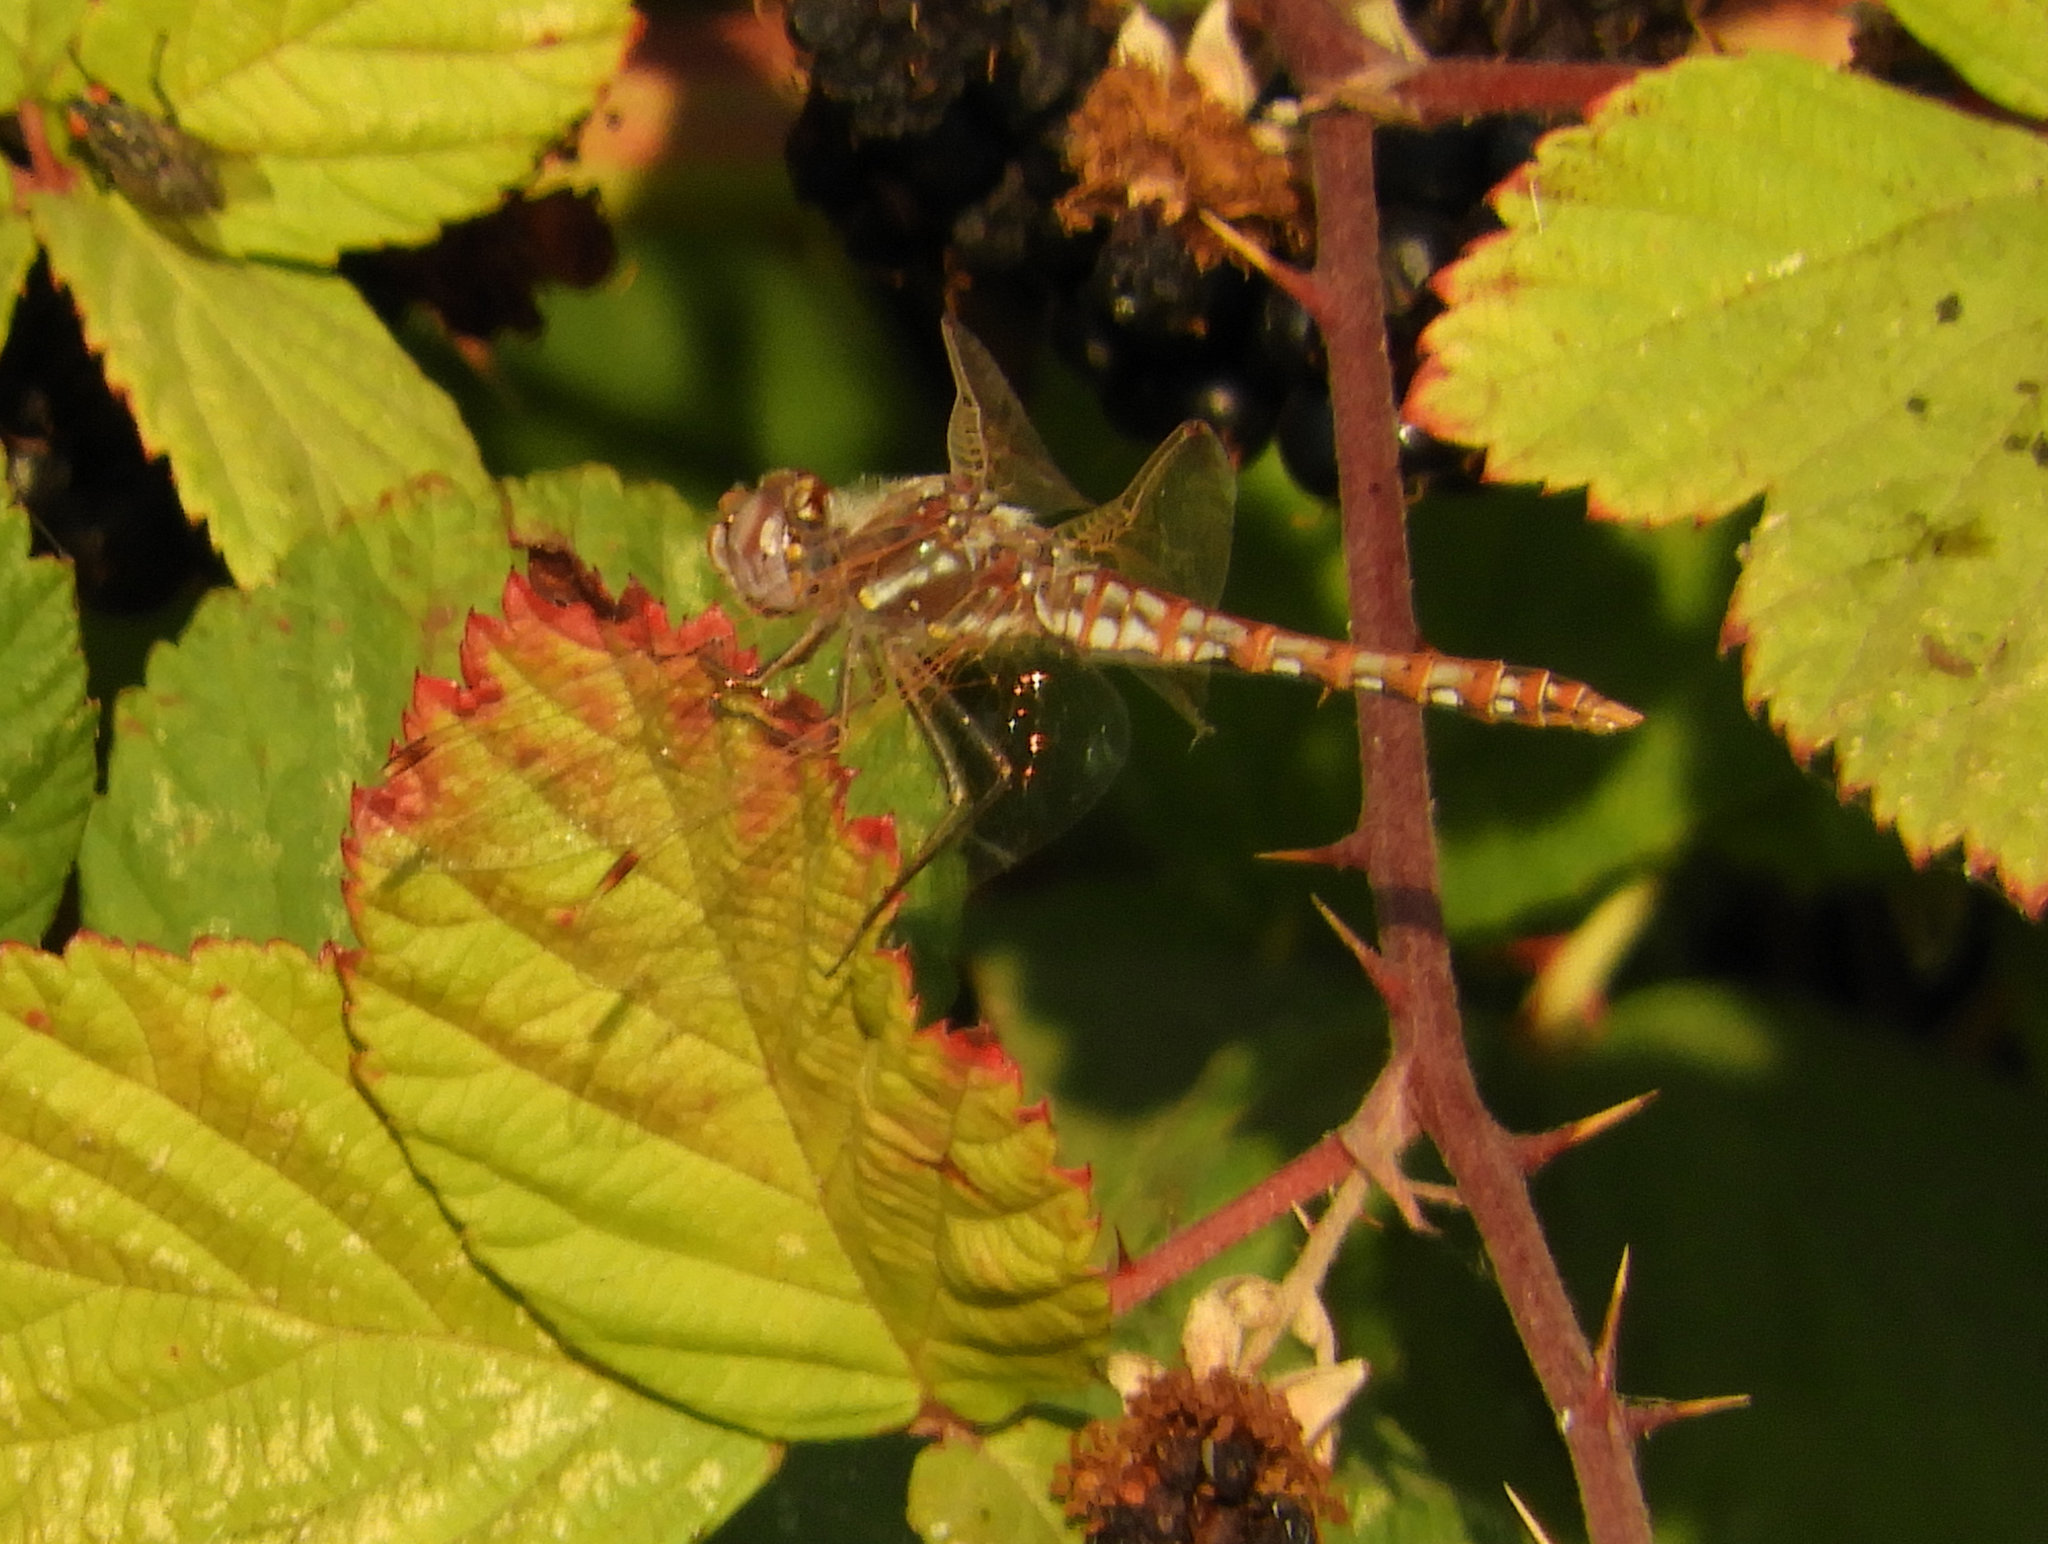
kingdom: Animalia
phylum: Arthropoda
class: Insecta
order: Odonata
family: Libellulidae
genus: Sympetrum
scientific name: Sympetrum corruptum
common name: Variegated meadowhawk
